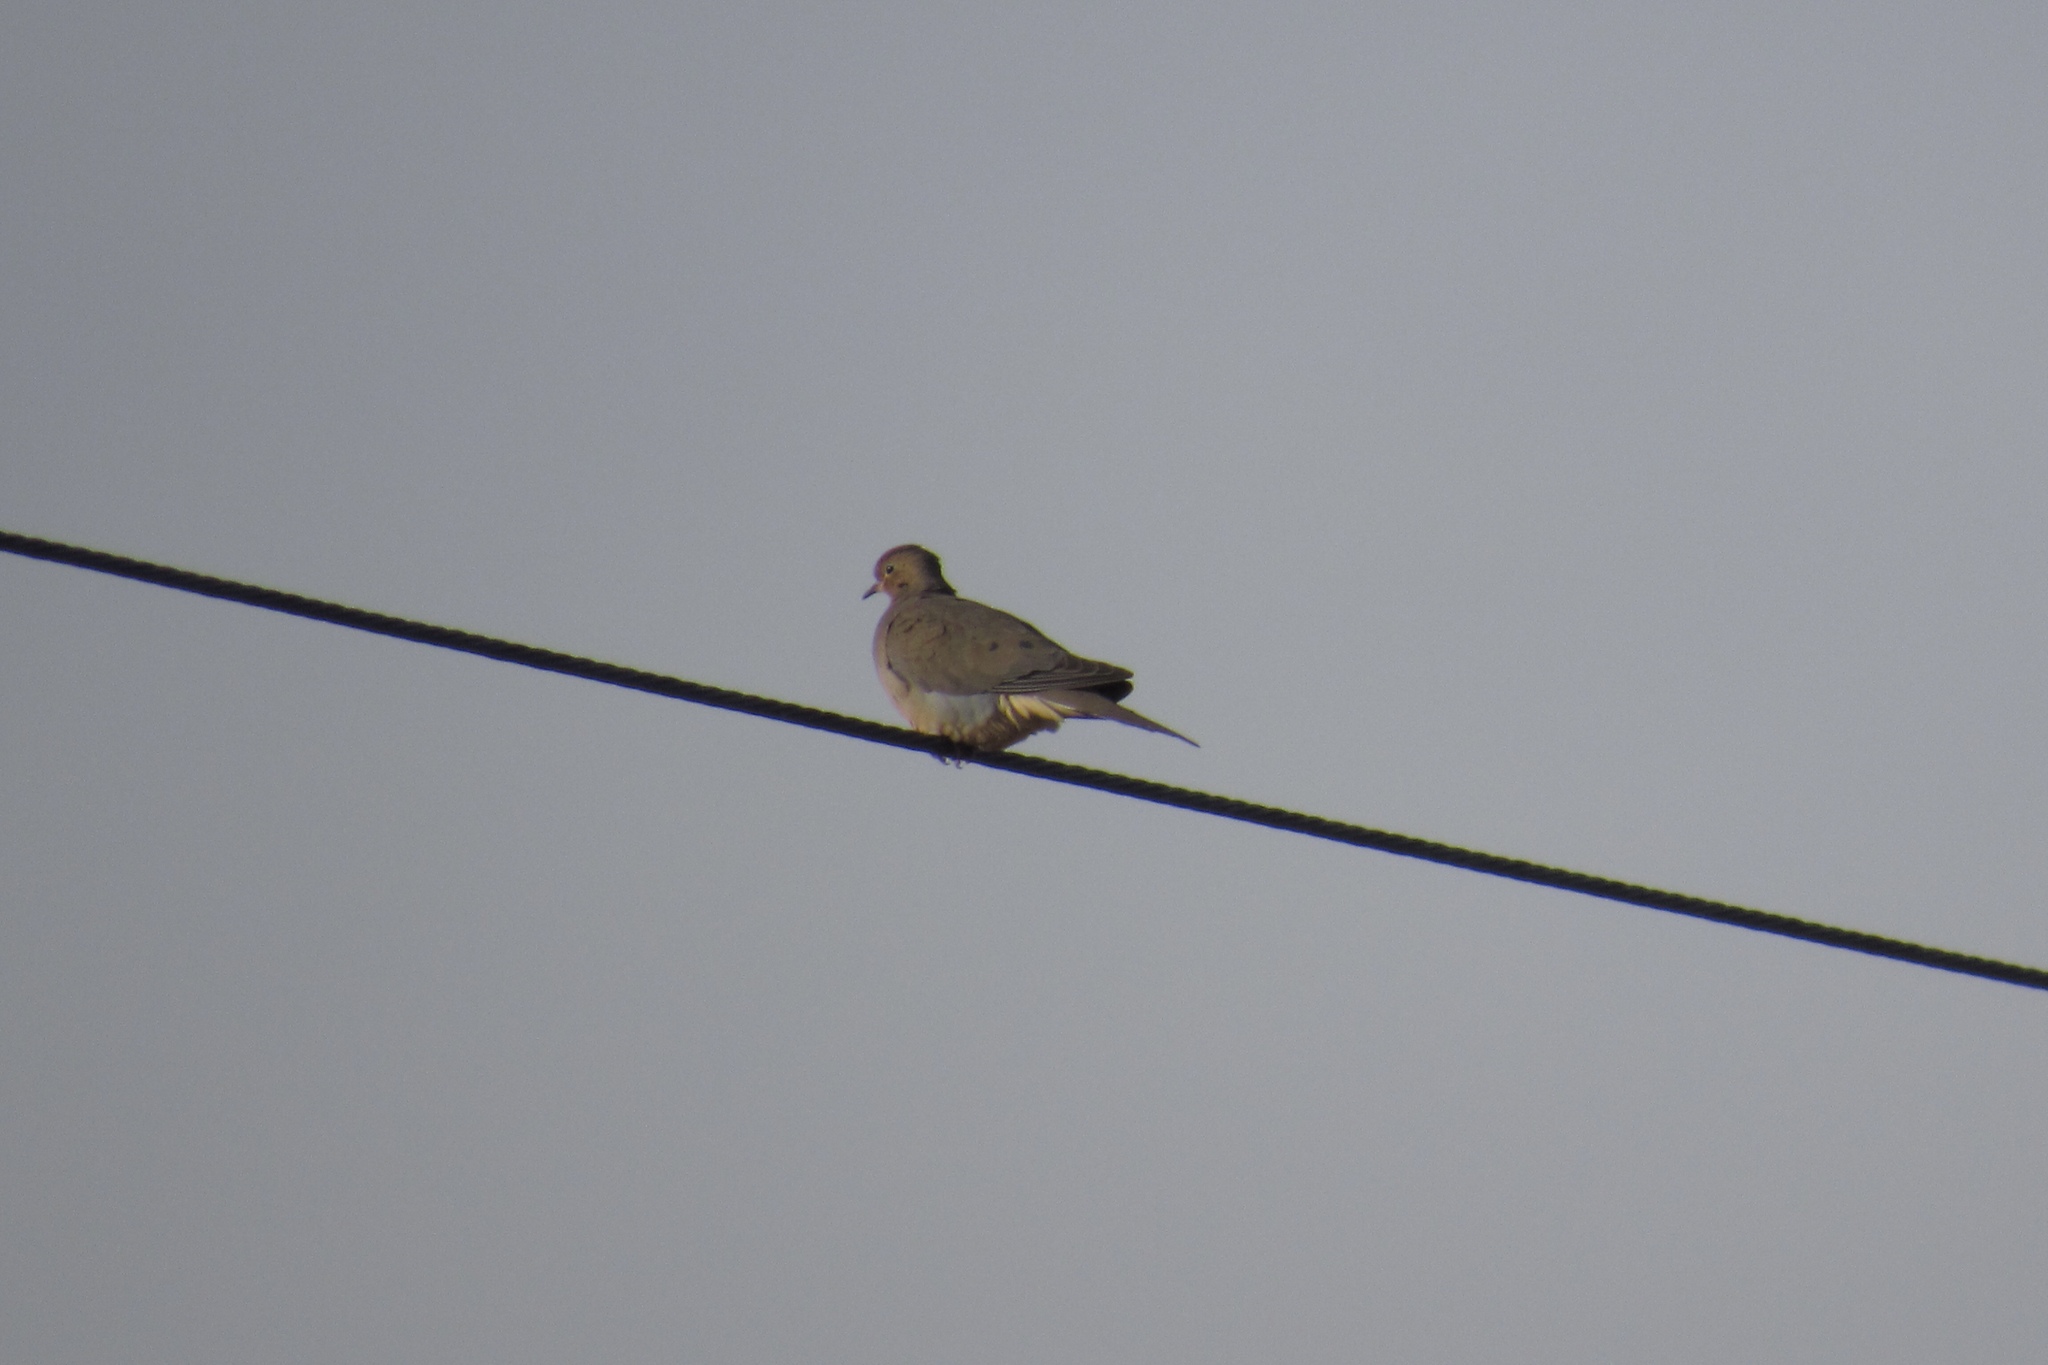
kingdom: Animalia
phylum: Chordata
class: Aves
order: Columbiformes
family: Columbidae
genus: Zenaida
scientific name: Zenaida macroura
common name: Mourning dove
